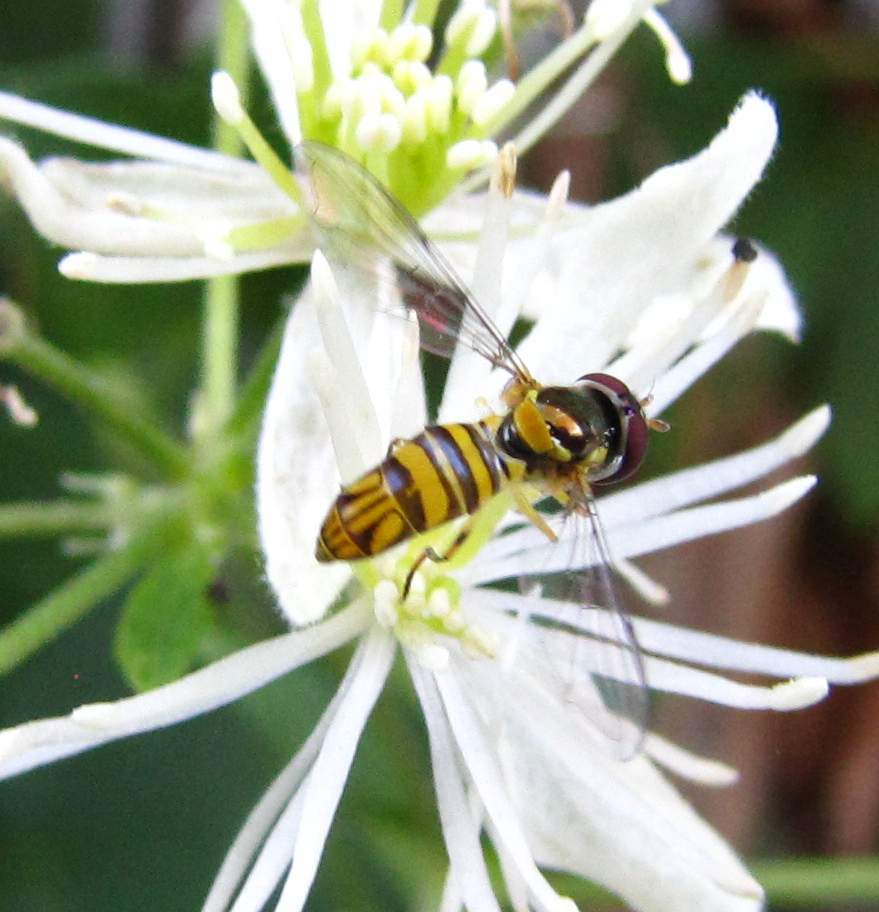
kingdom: Animalia
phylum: Arthropoda
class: Insecta
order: Diptera
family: Syrphidae
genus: Allograpta
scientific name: Allograpta obliqua
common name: Common oblique syrphid
